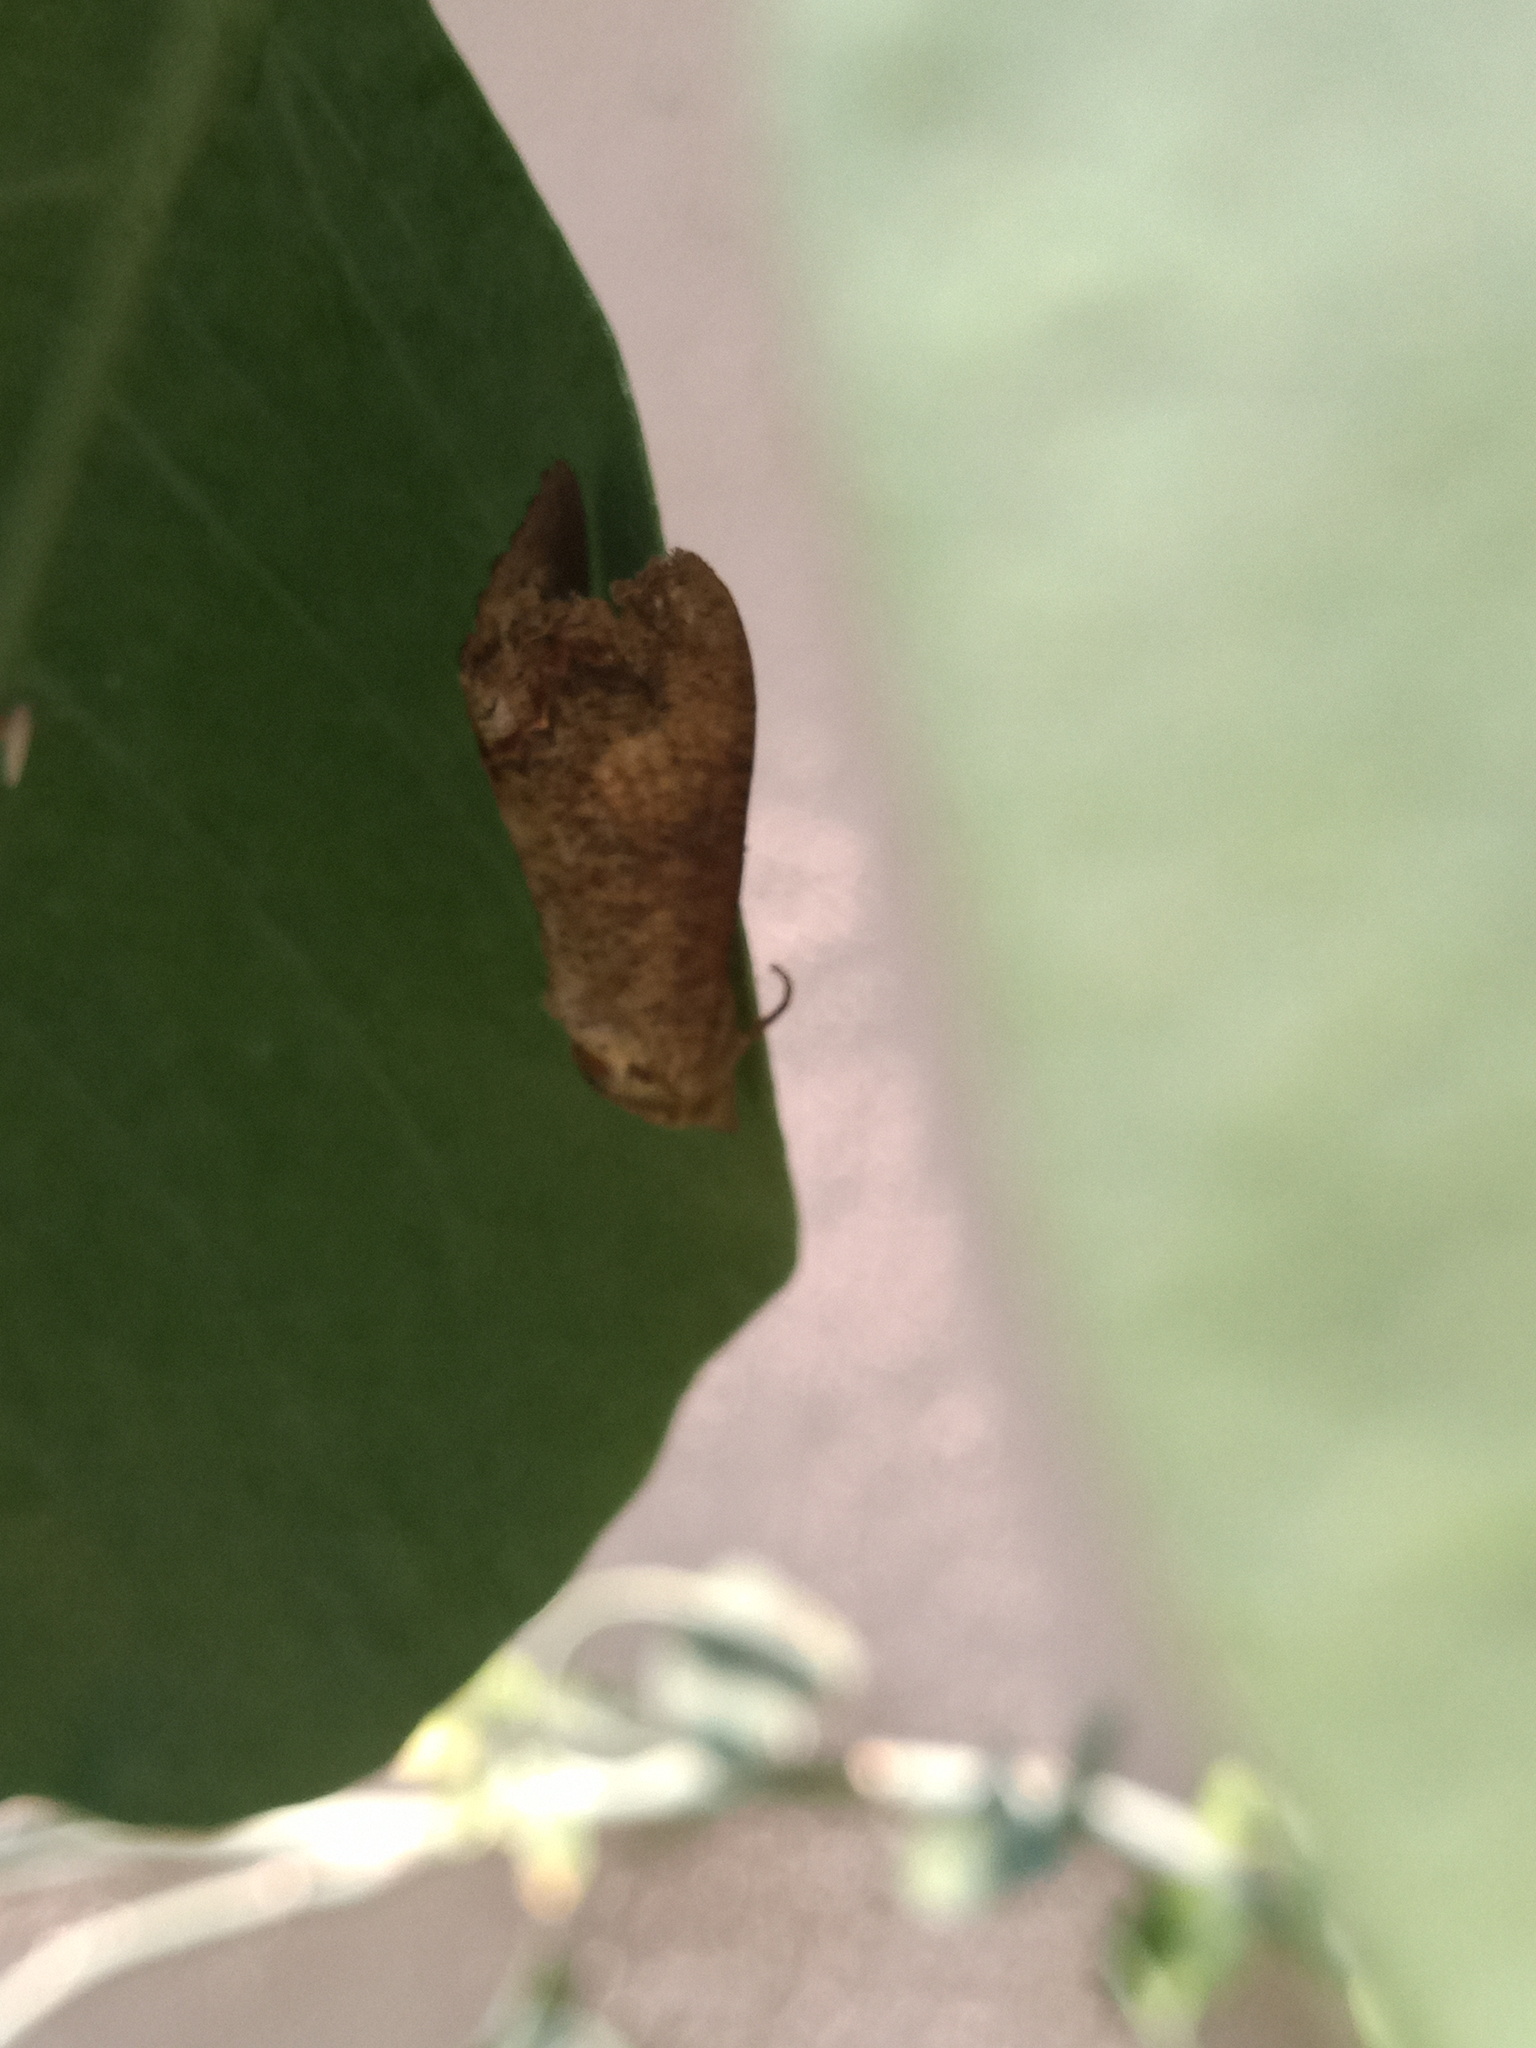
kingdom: Animalia
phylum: Arthropoda
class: Insecta
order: Lepidoptera
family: Erebidae
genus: Hypocala
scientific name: Hypocala andremona
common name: Hypocala moth
